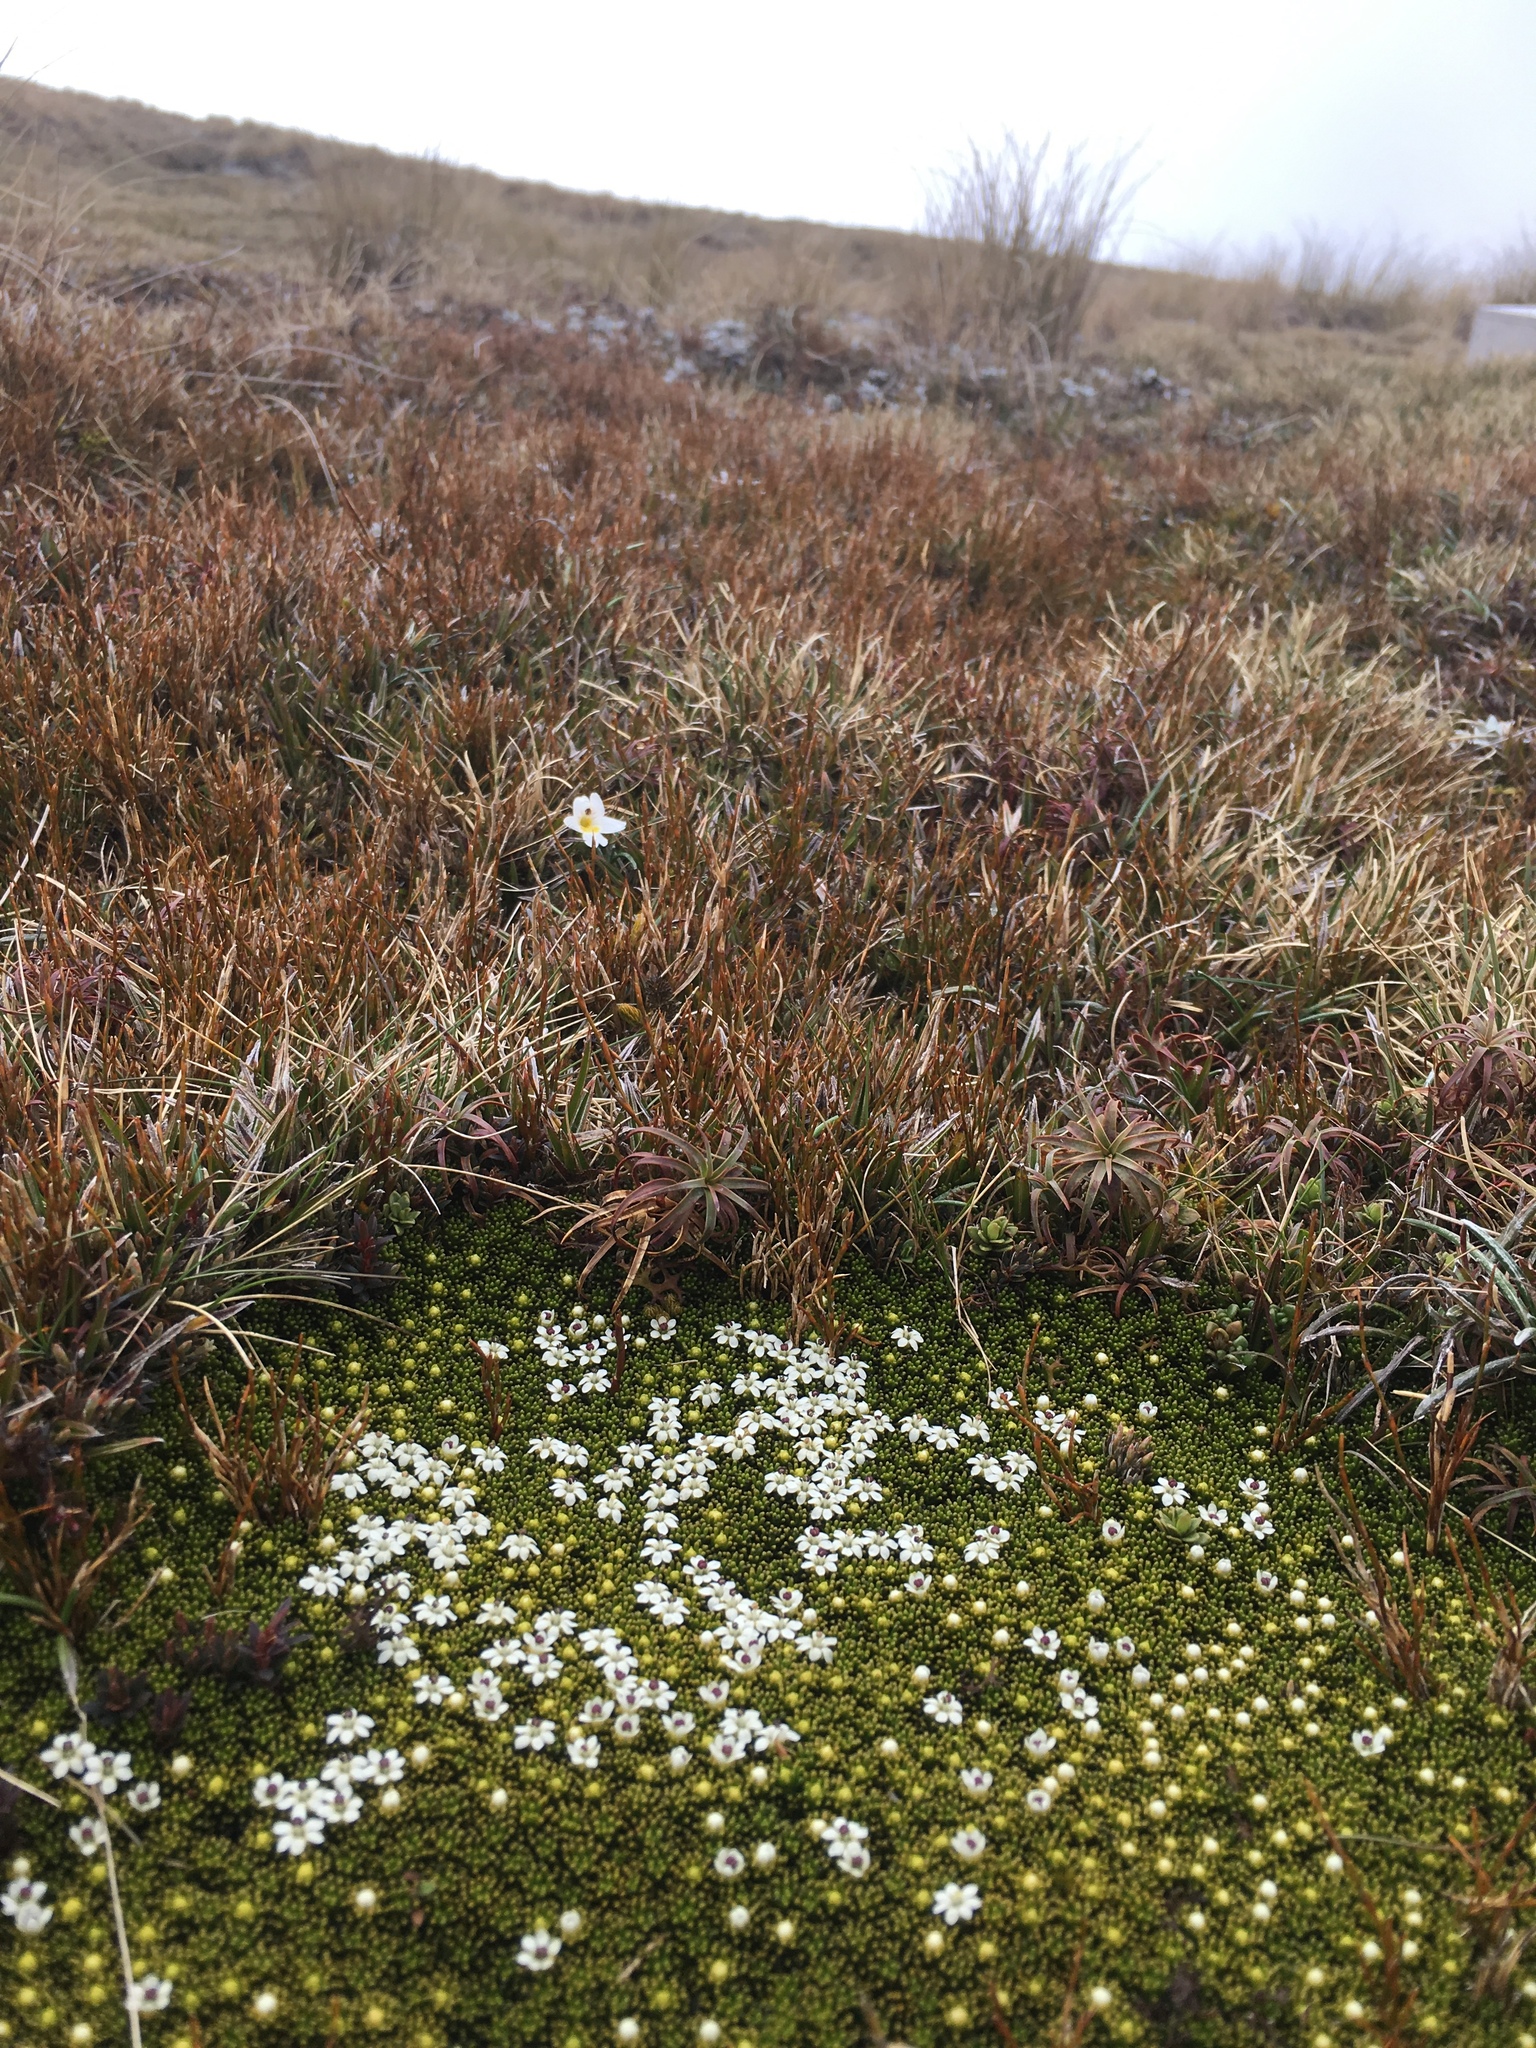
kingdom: Plantae
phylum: Tracheophyta
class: Magnoliopsida
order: Asterales
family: Stylidiaceae
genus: Phyllachne
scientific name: Phyllachne colensoi
